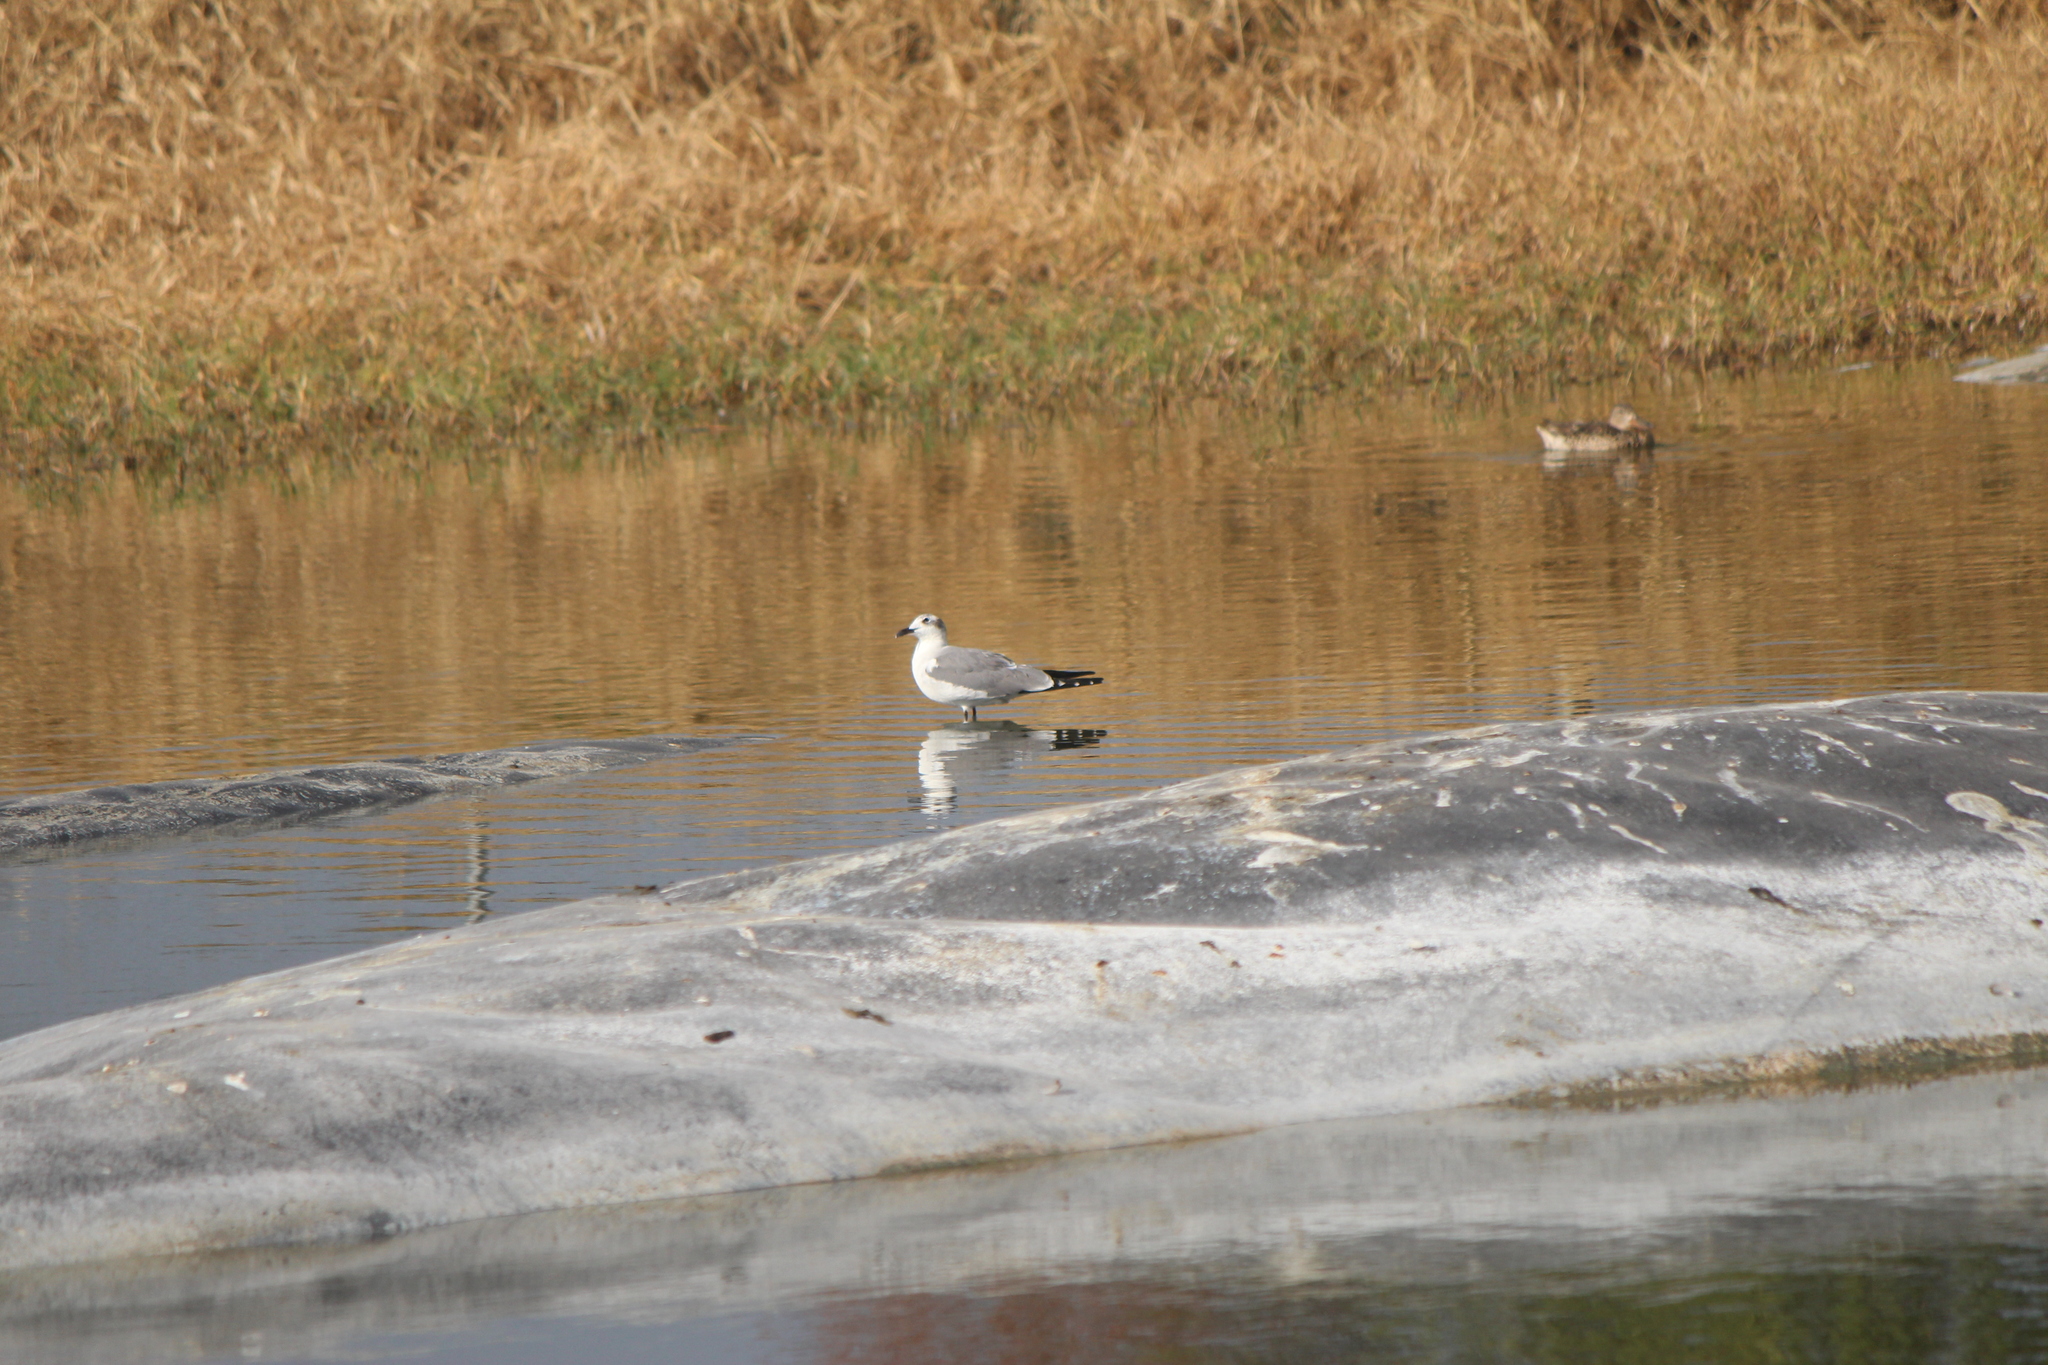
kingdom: Animalia
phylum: Chordata
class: Aves
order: Charadriiformes
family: Laridae
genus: Leucophaeus
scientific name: Leucophaeus atricilla
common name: Laughing gull
